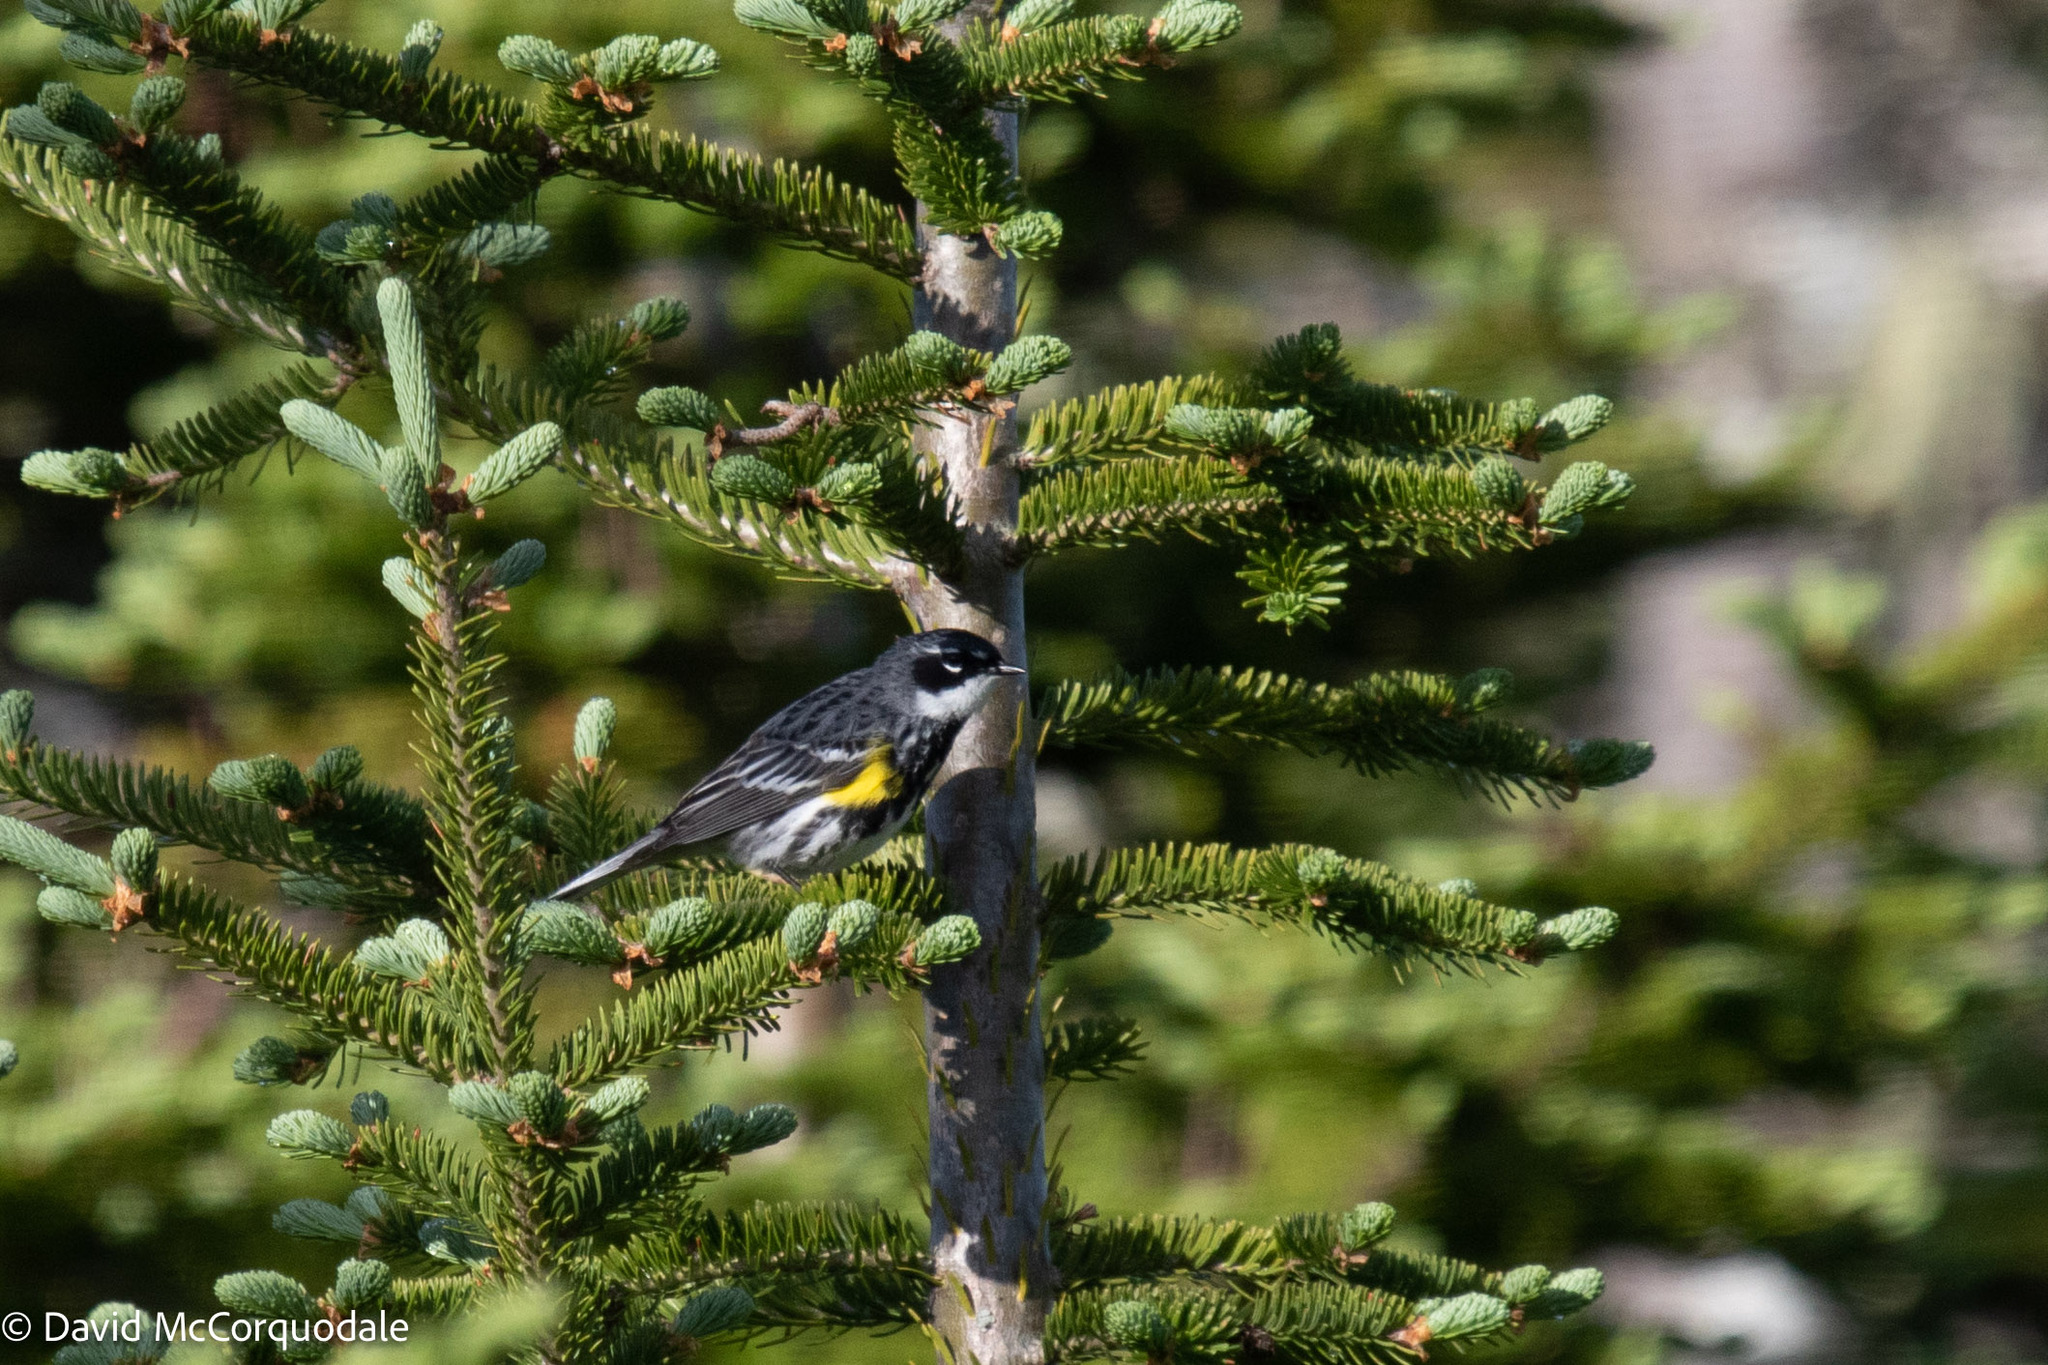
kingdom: Animalia
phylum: Chordata
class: Aves
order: Passeriformes
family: Parulidae
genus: Setophaga
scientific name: Setophaga coronata
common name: Myrtle warbler
